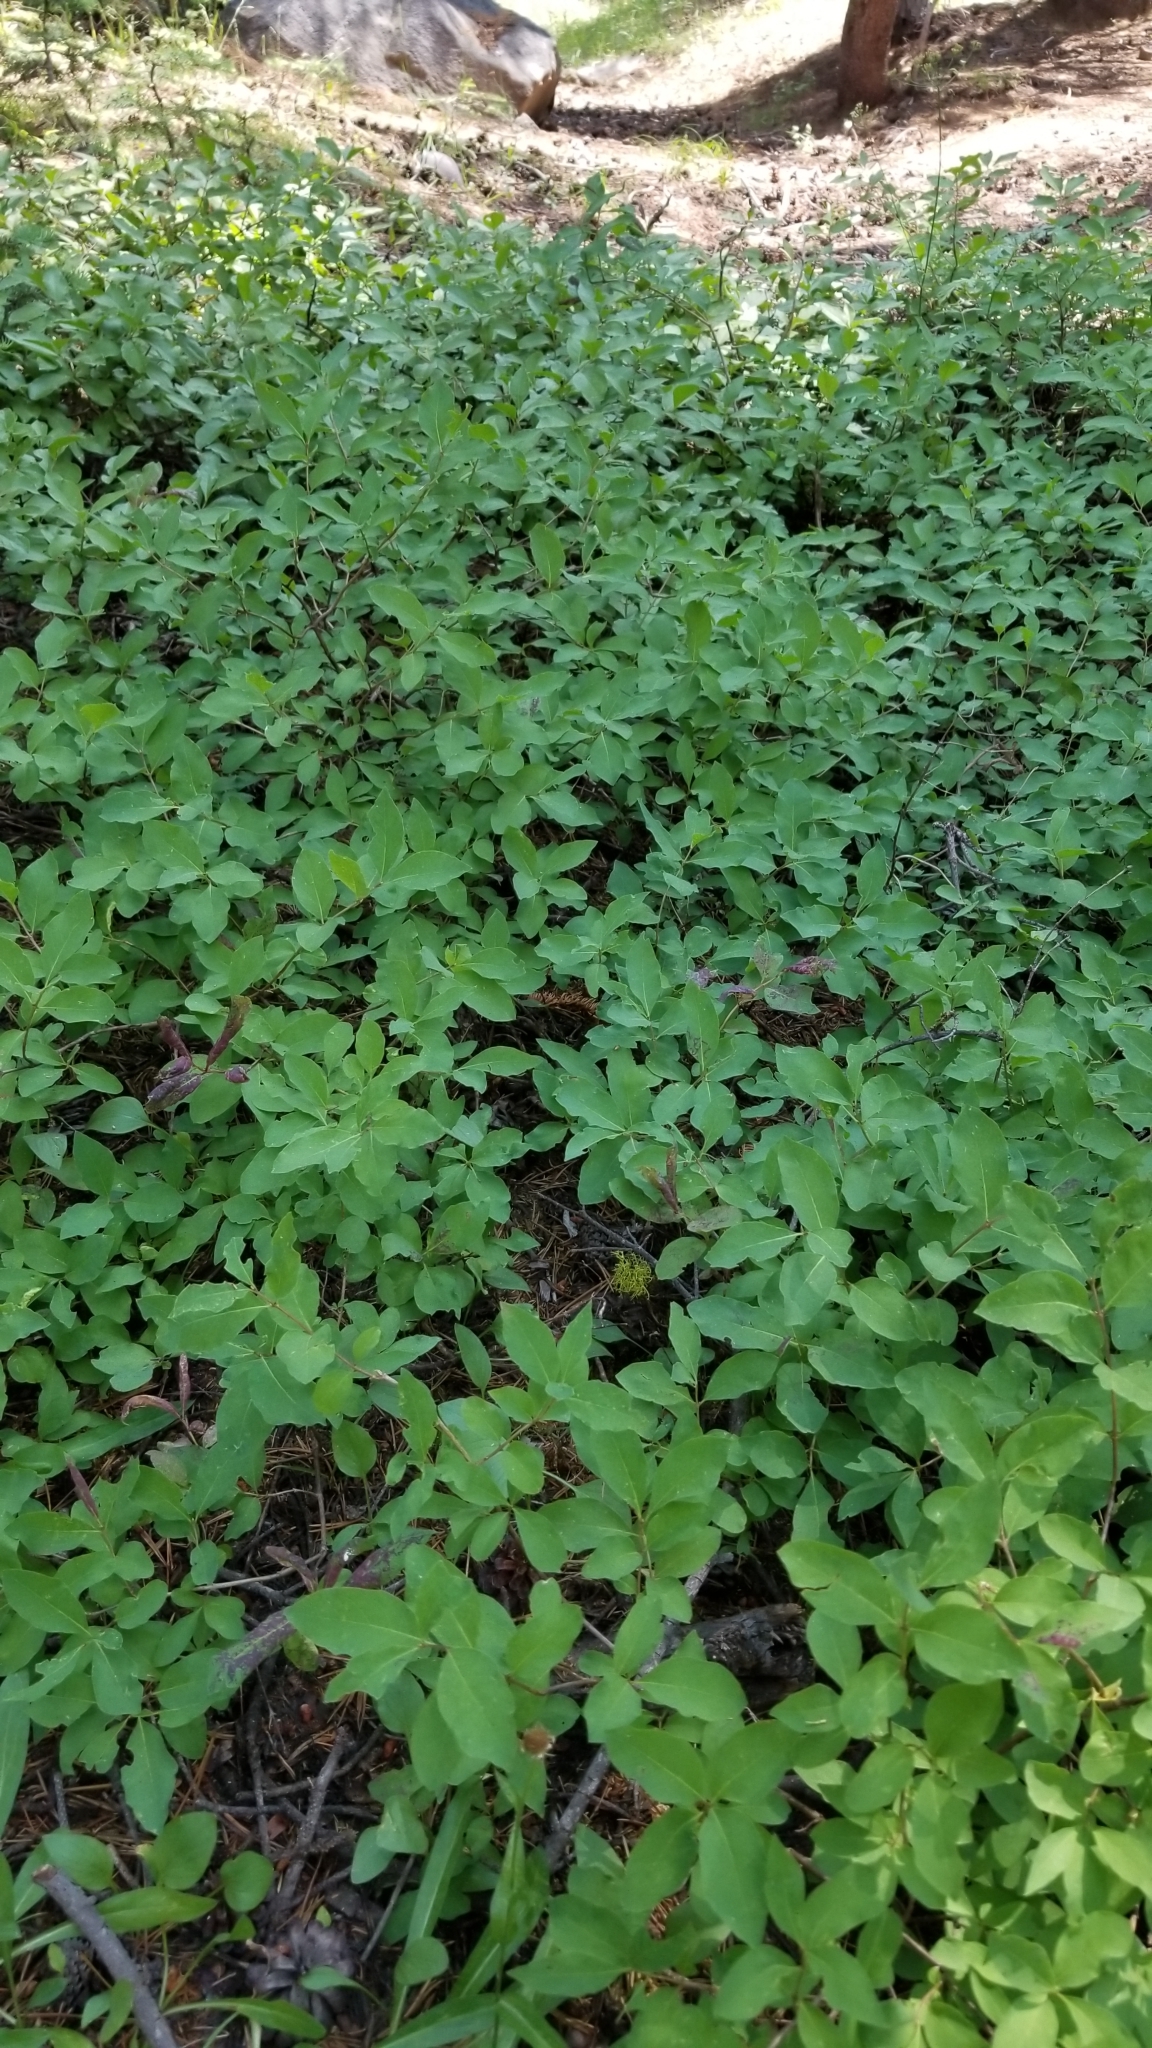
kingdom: Plantae
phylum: Tracheophyta
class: Magnoliopsida
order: Dipsacales
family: Caprifoliaceae
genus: Lonicera
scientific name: Lonicera conjugialis
